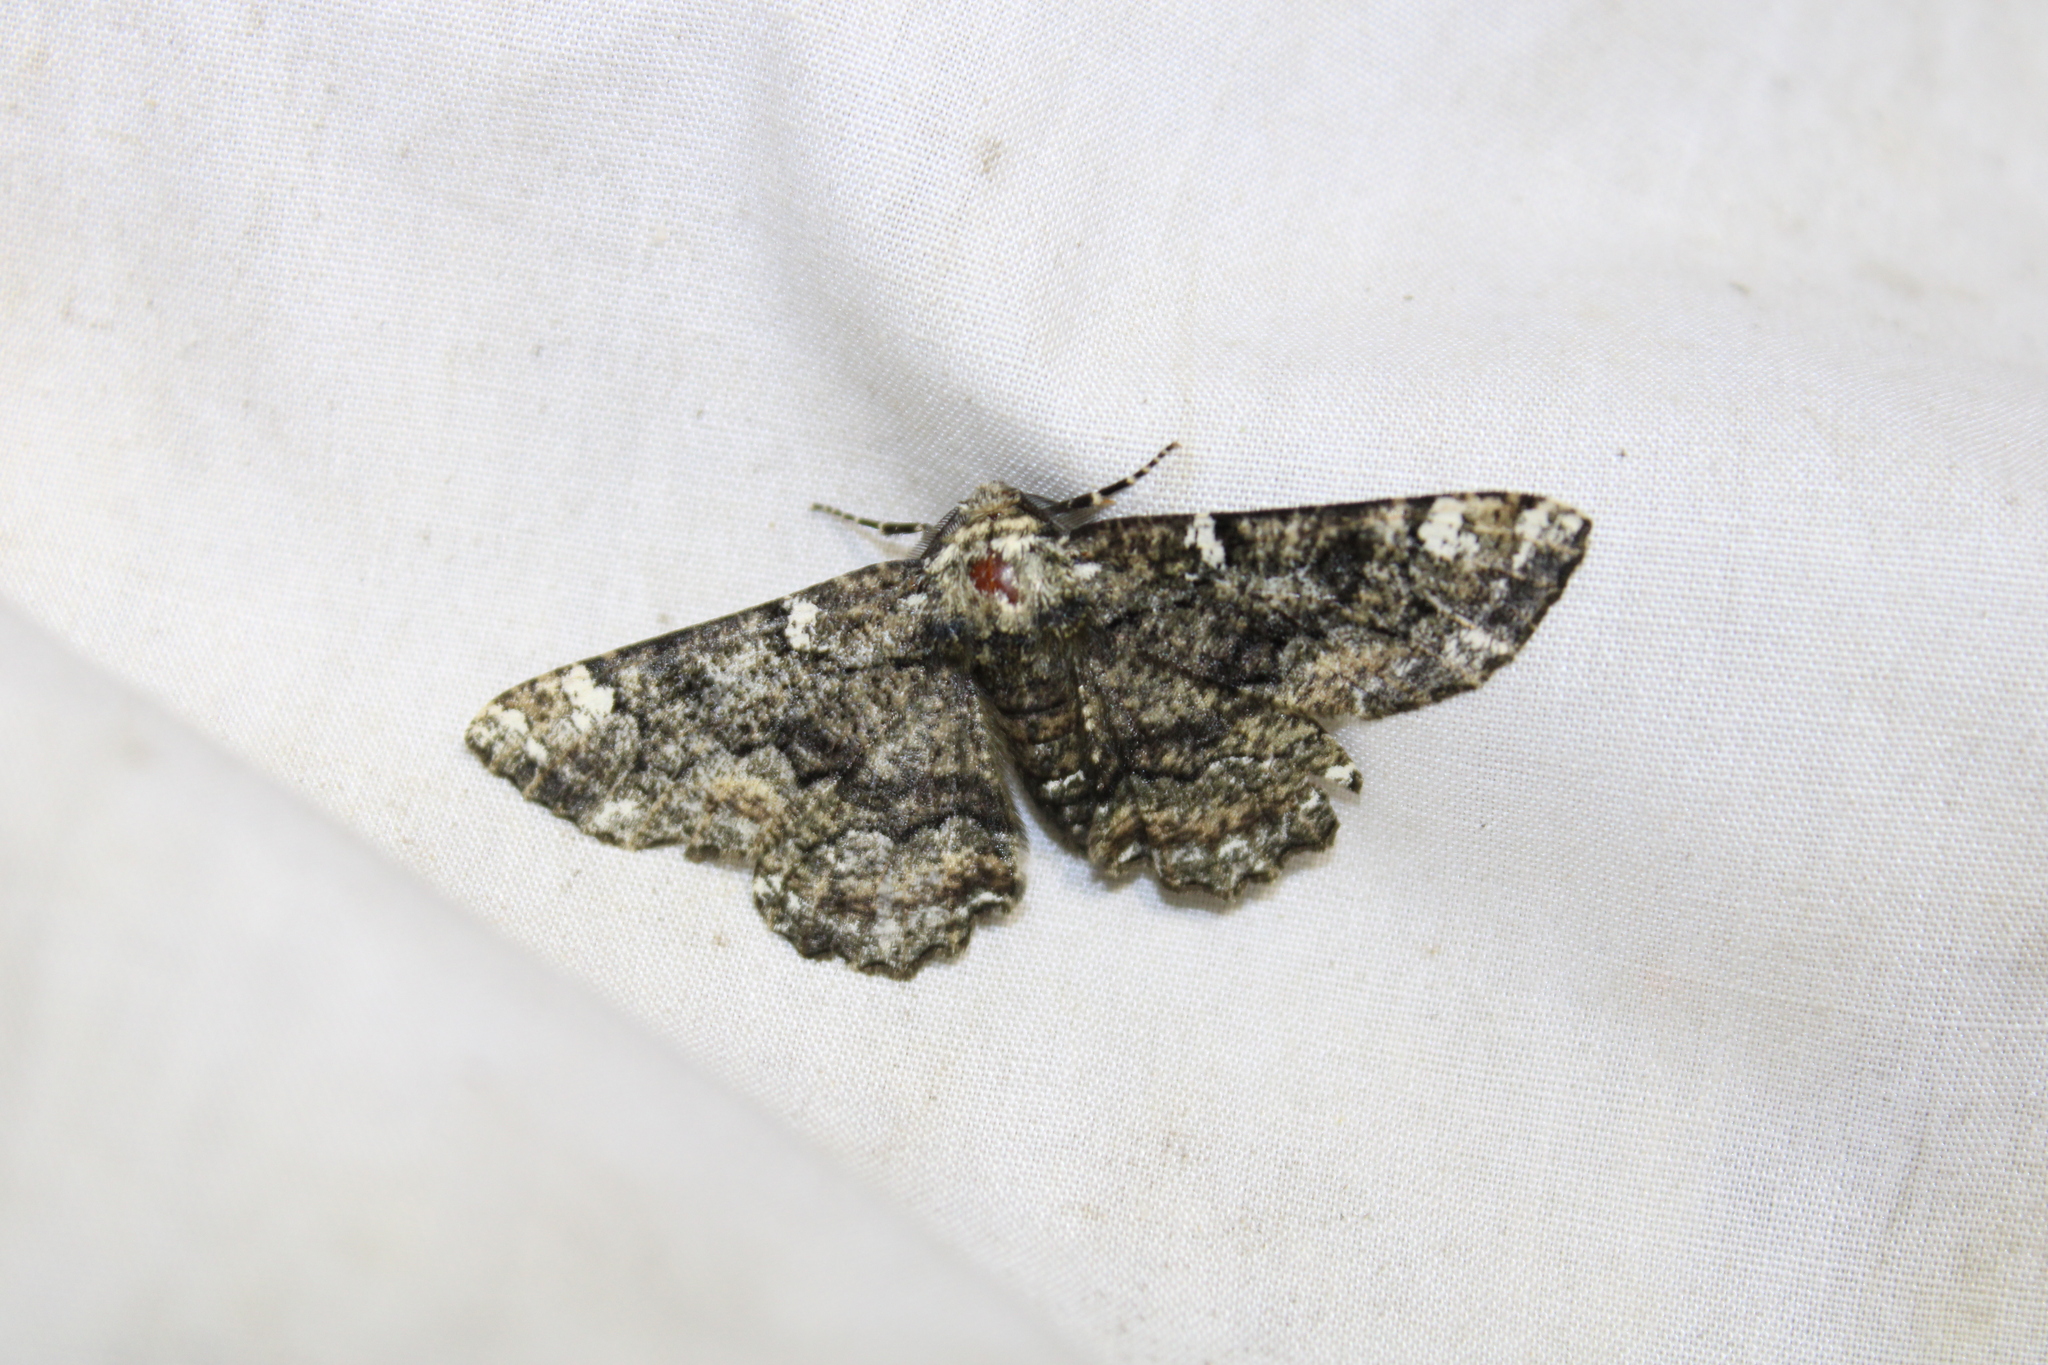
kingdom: Animalia
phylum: Arthropoda
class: Insecta
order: Lepidoptera
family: Geometridae
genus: Phaeoura
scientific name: Phaeoura quernaria
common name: Oak beauty
